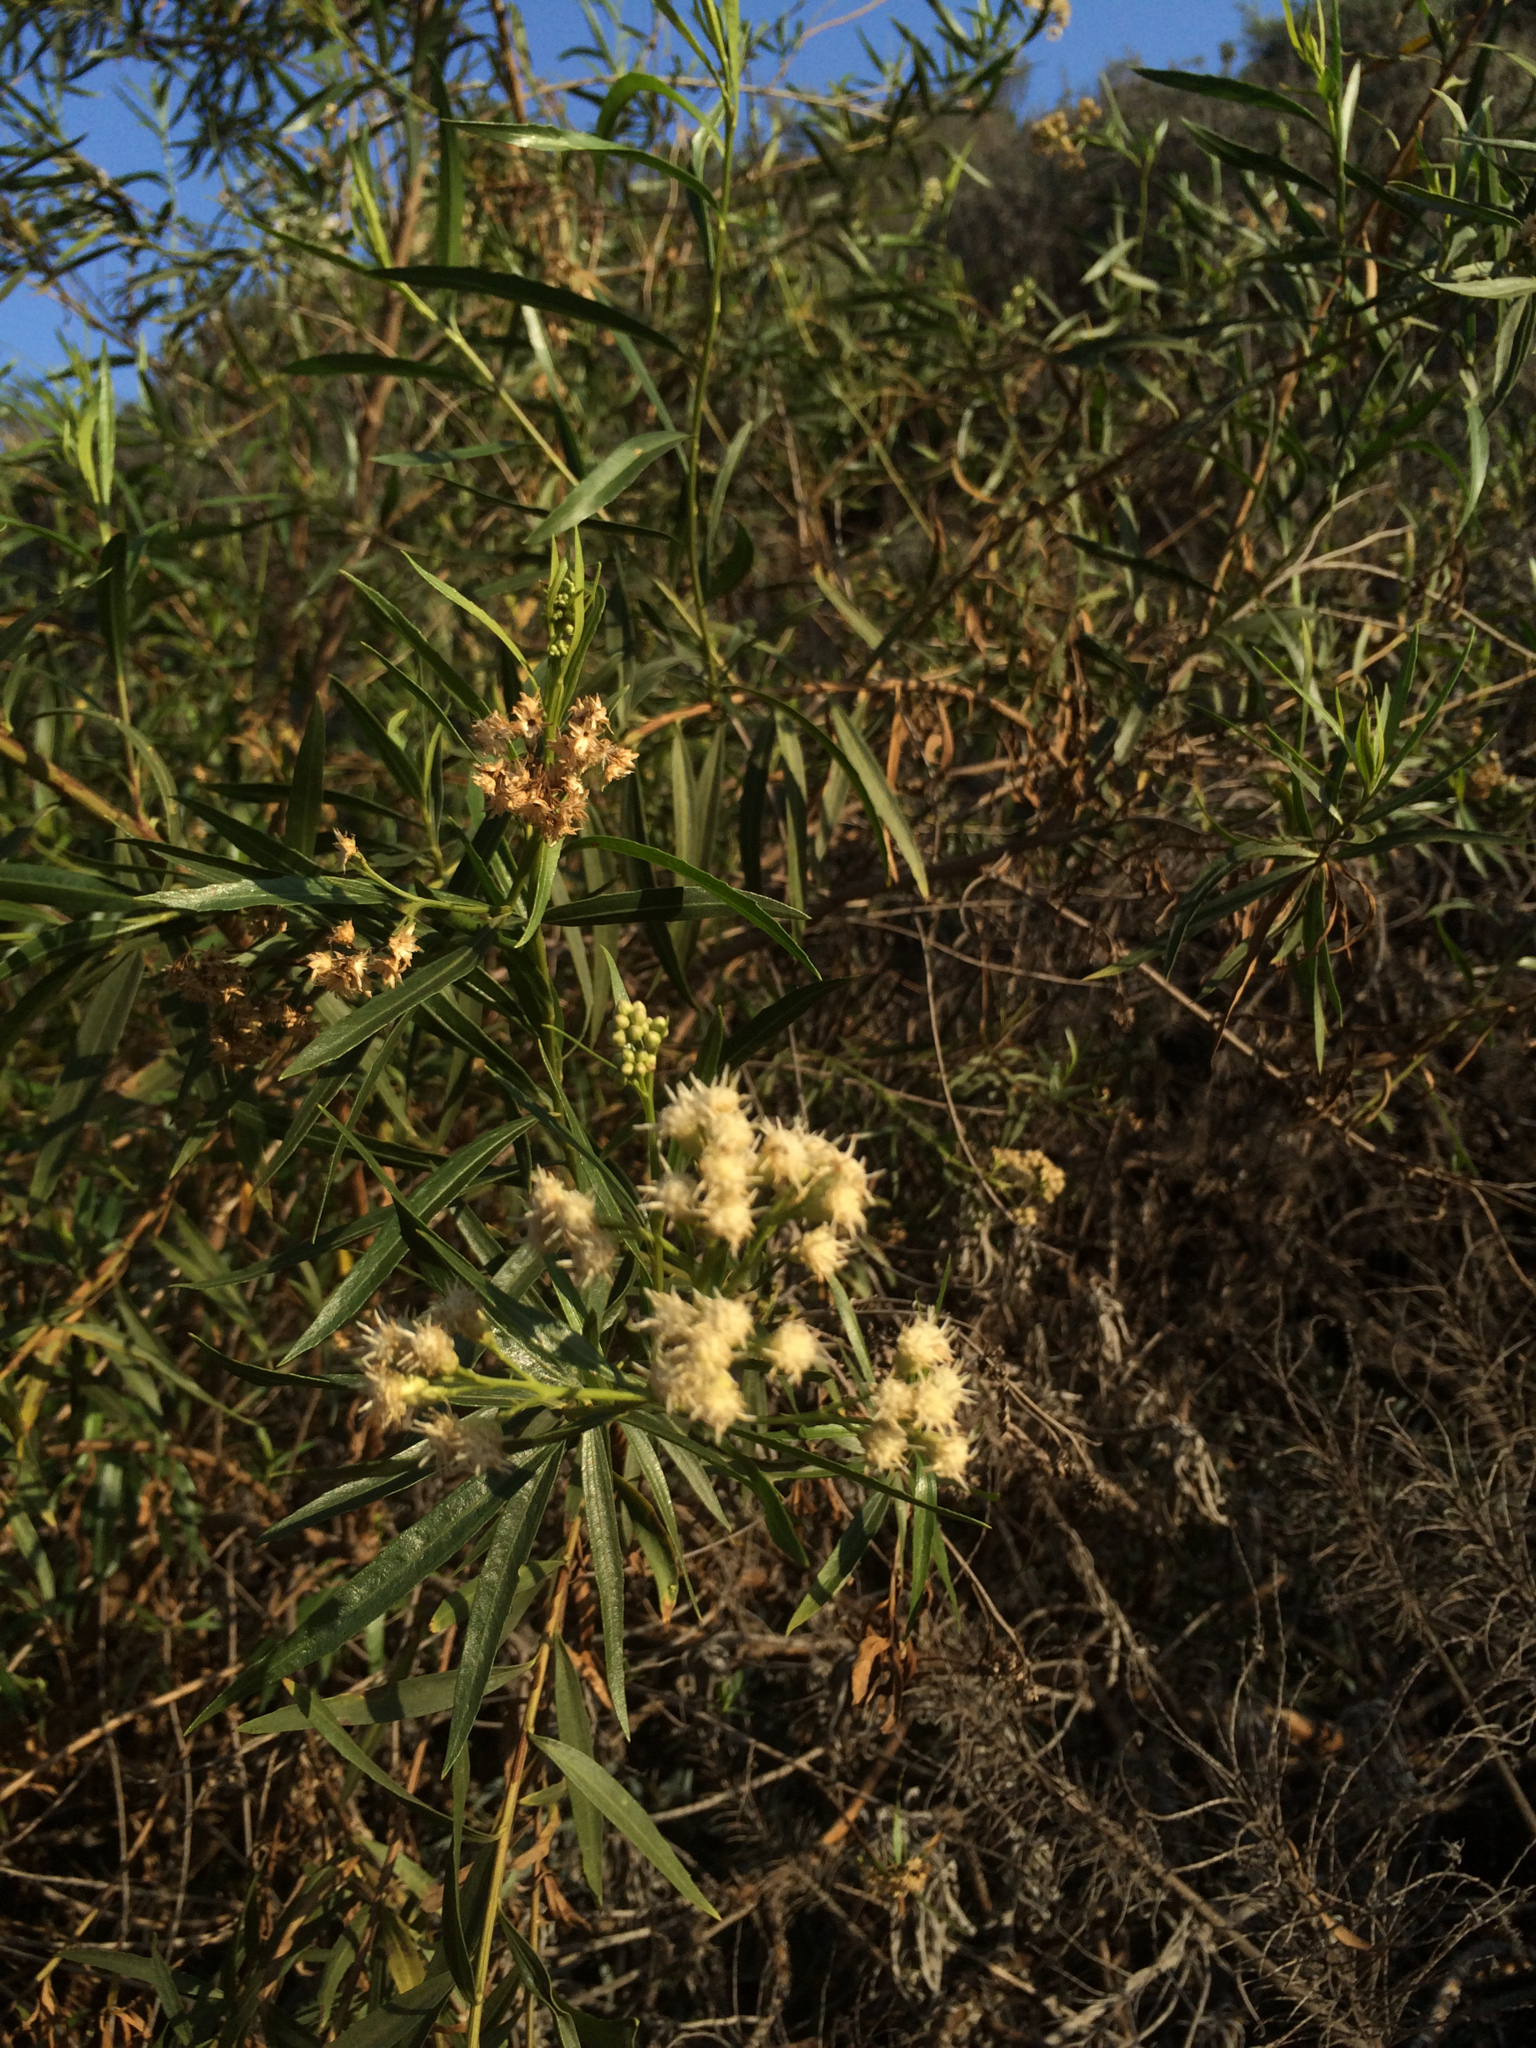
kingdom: Plantae
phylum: Tracheophyta
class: Magnoliopsida
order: Asterales
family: Asteraceae
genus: Baccharis
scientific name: Baccharis salicifolia
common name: Sticky baccharis
